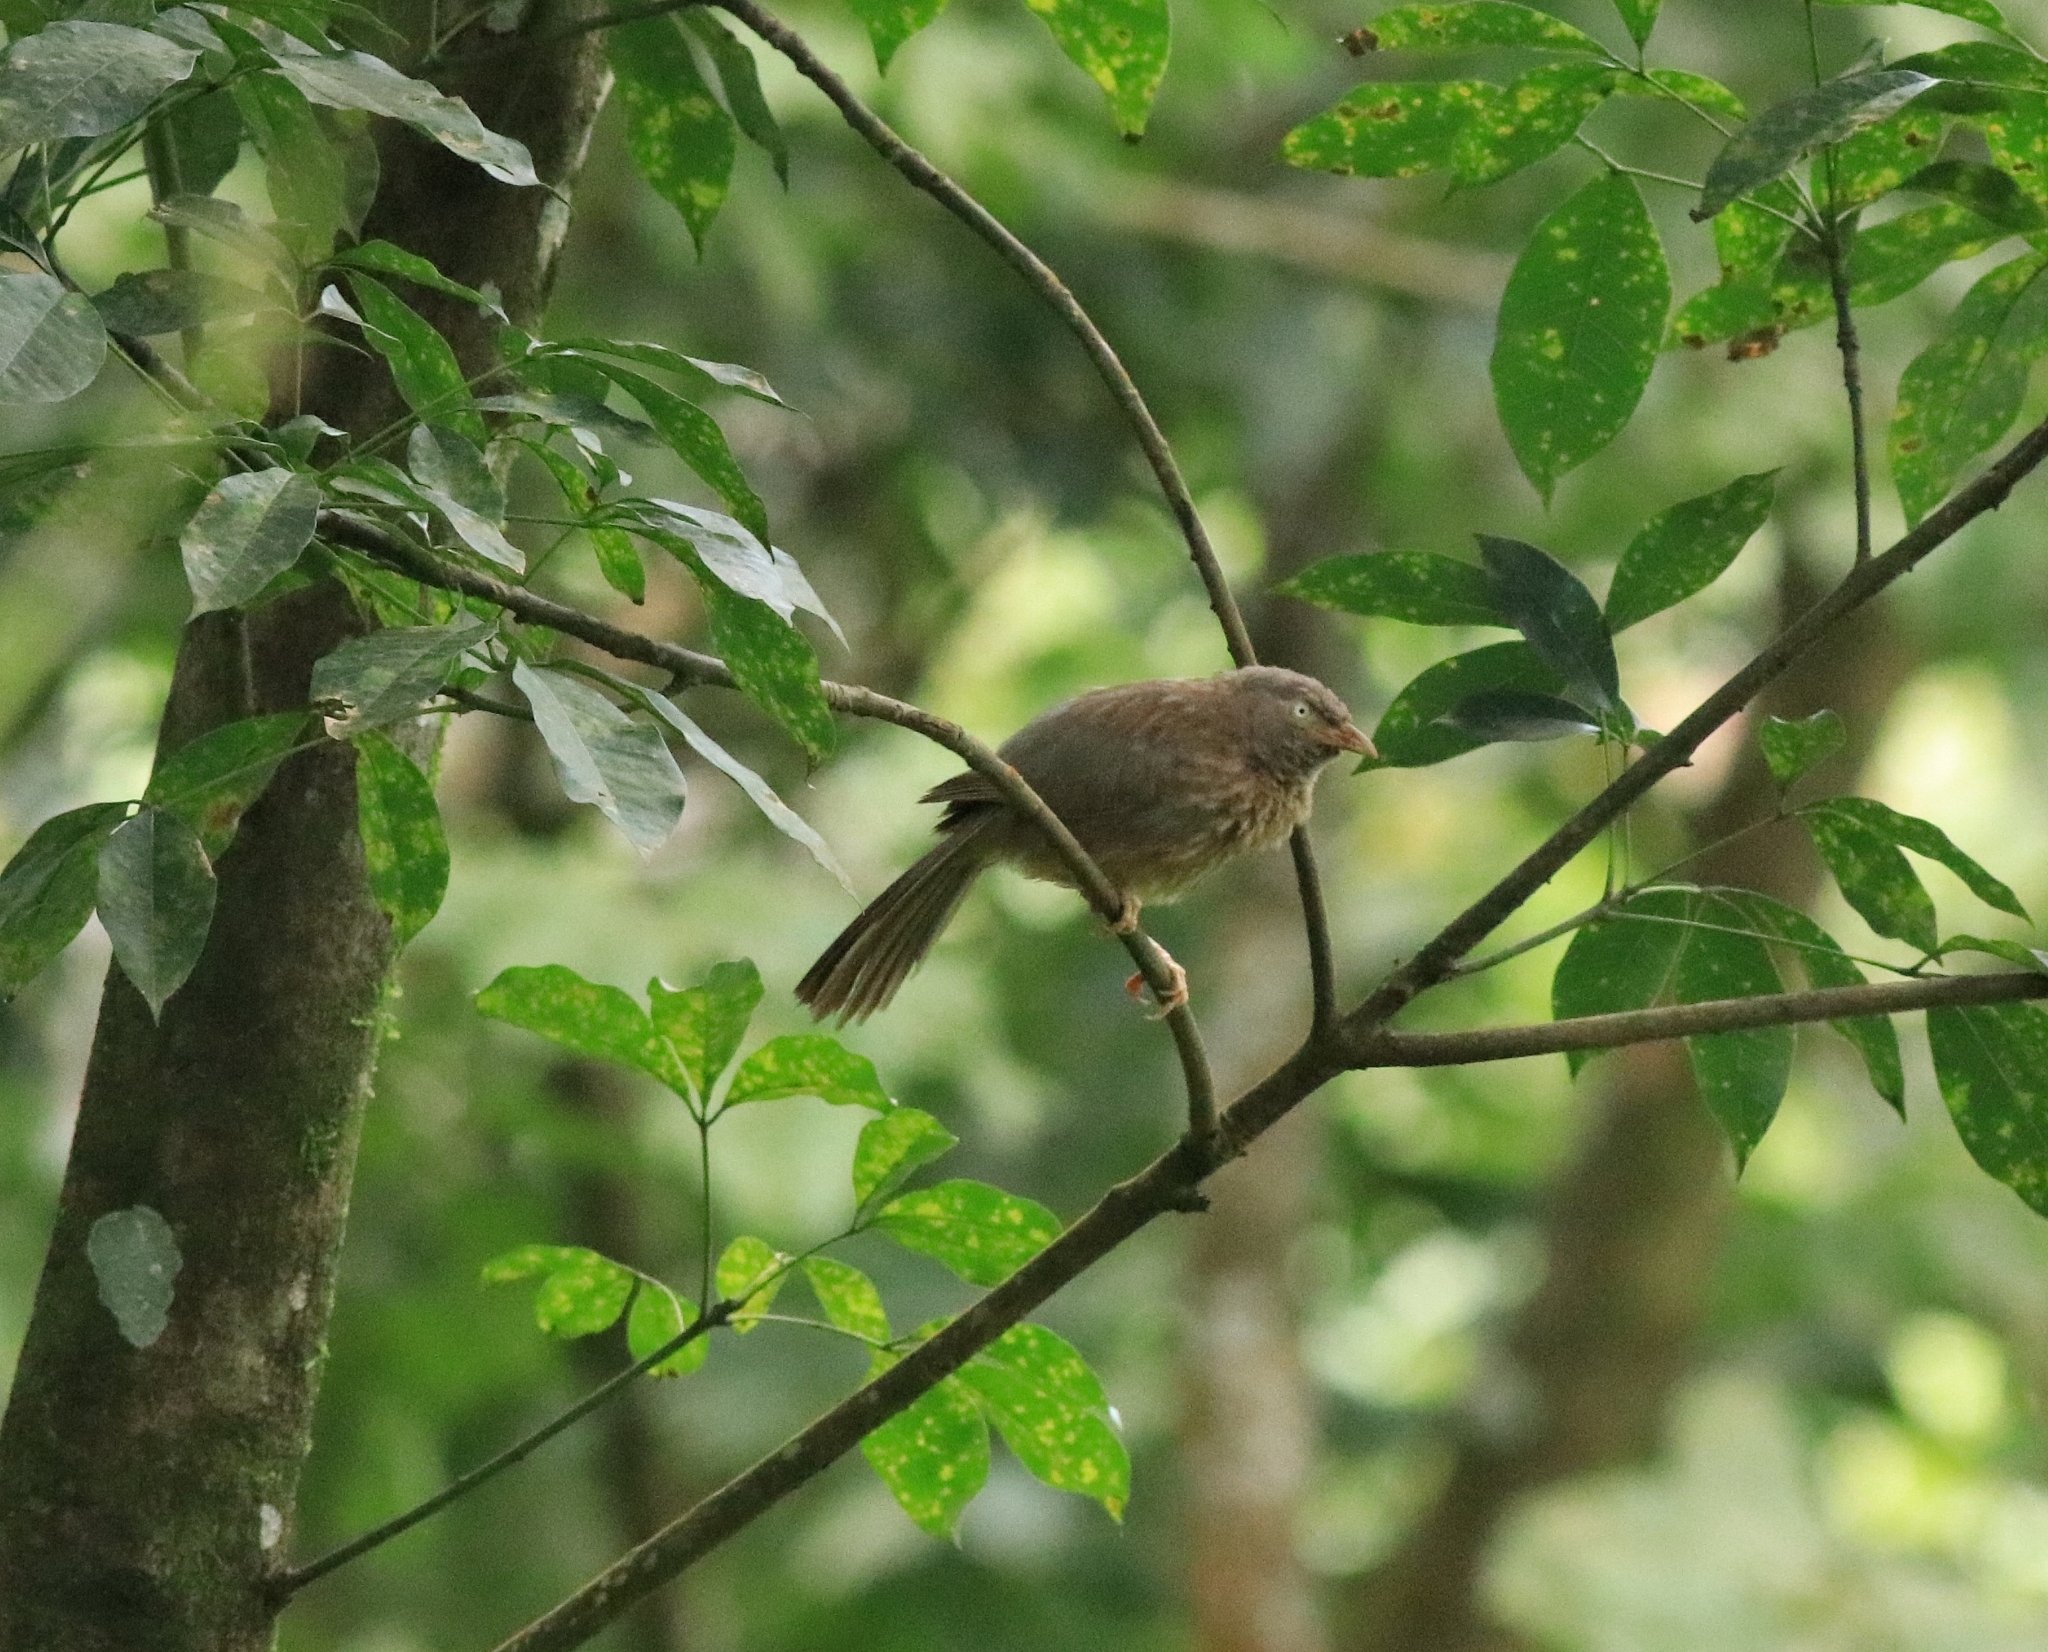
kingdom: Animalia
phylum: Chordata
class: Aves
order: Passeriformes
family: Leiothrichidae
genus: Turdoides
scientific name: Turdoides striata
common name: Jungle babbler
